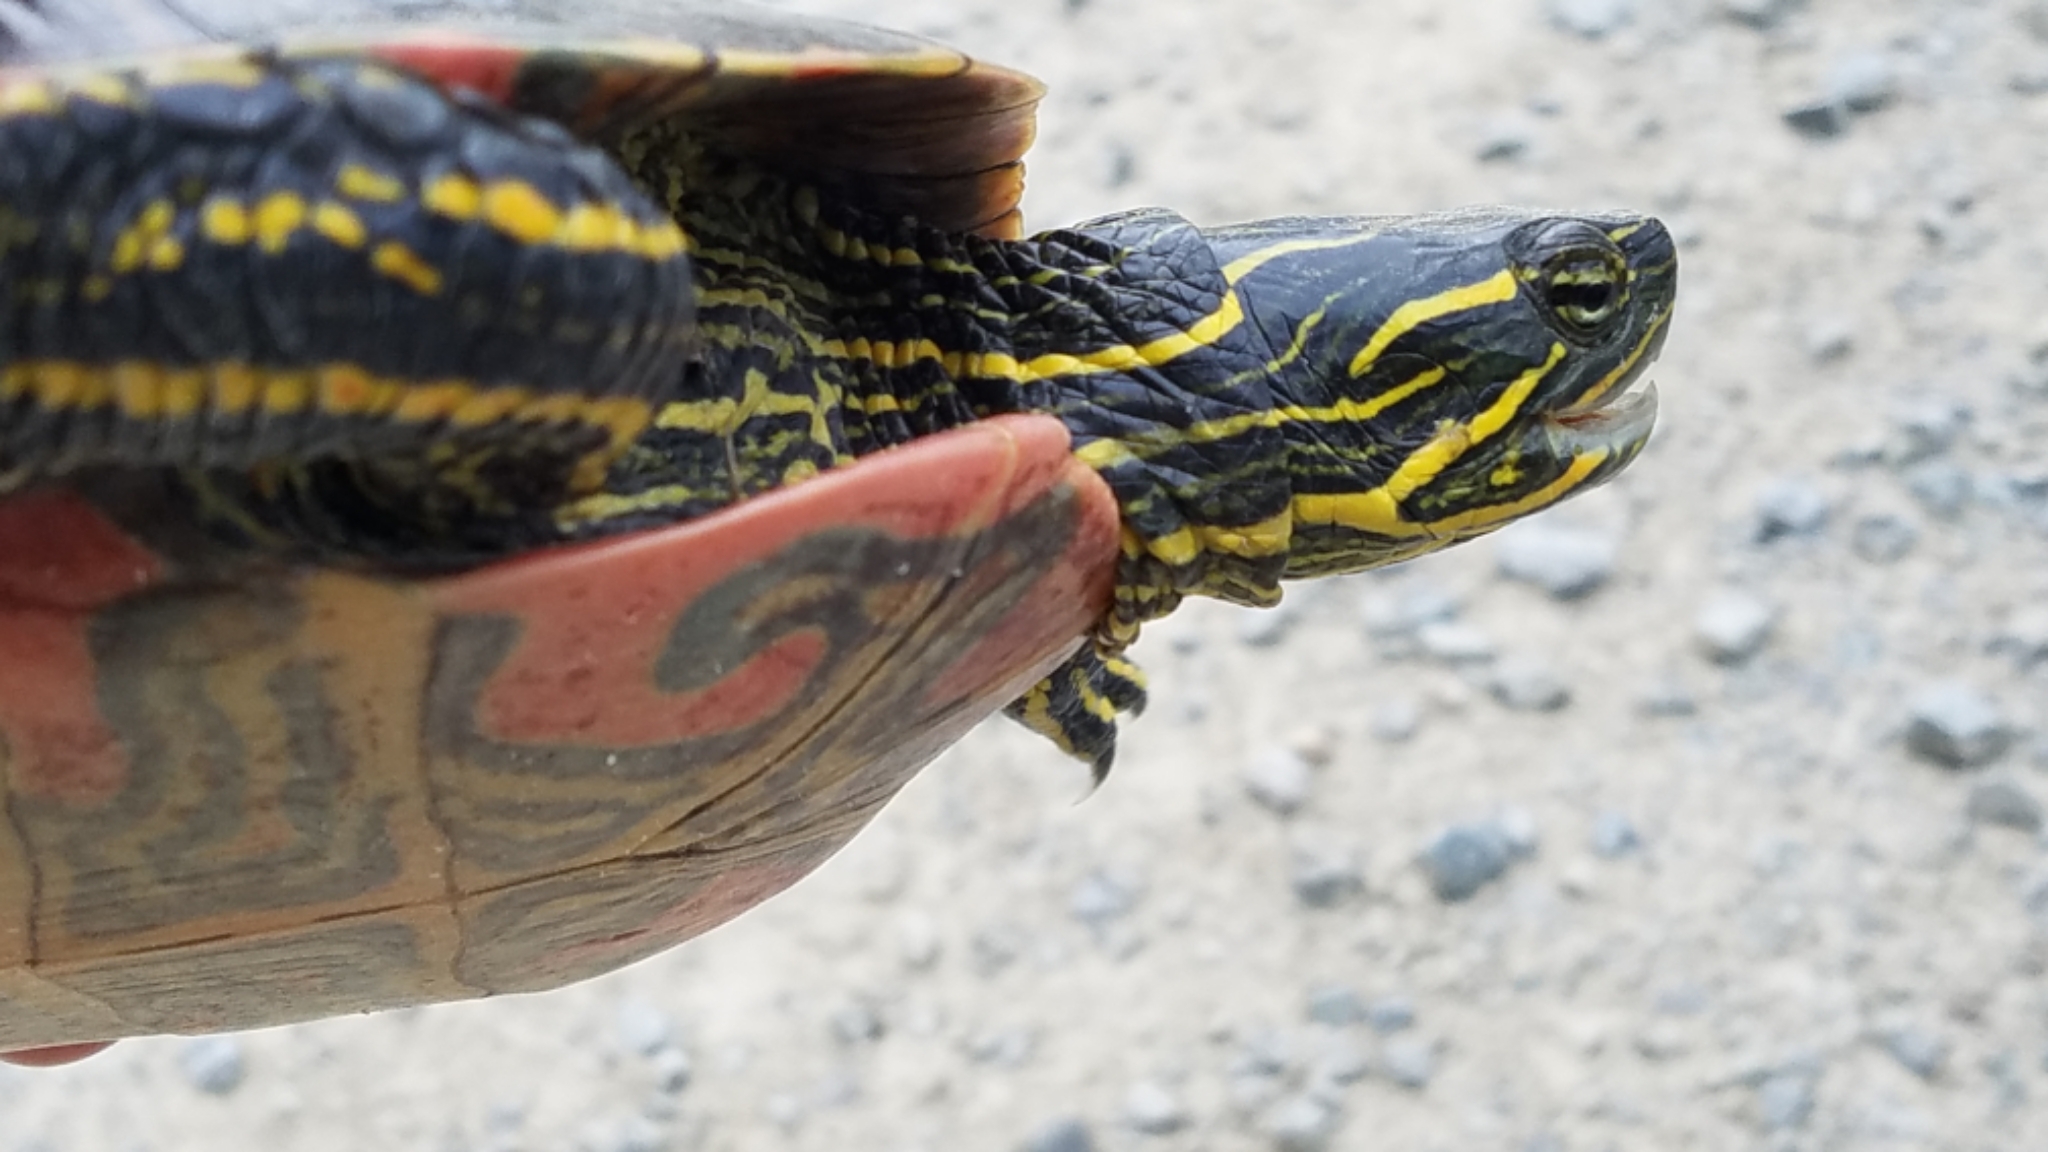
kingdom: Animalia
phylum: Chordata
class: Testudines
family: Emydidae
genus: Chrysemys
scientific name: Chrysemys picta
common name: Painted turtle
